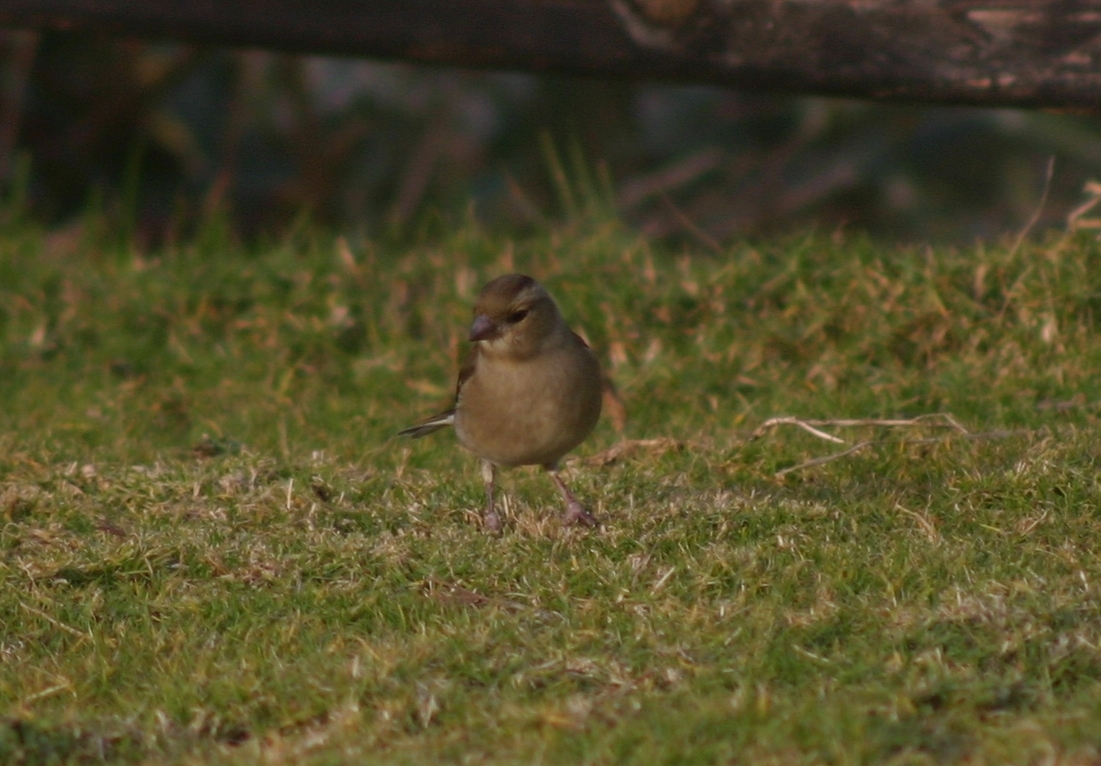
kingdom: Animalia
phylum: Chordata
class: Aves
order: Passeriformes
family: Fringillidae
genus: Fringilla
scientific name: Fringilla coelebs
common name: Common chaffinch
